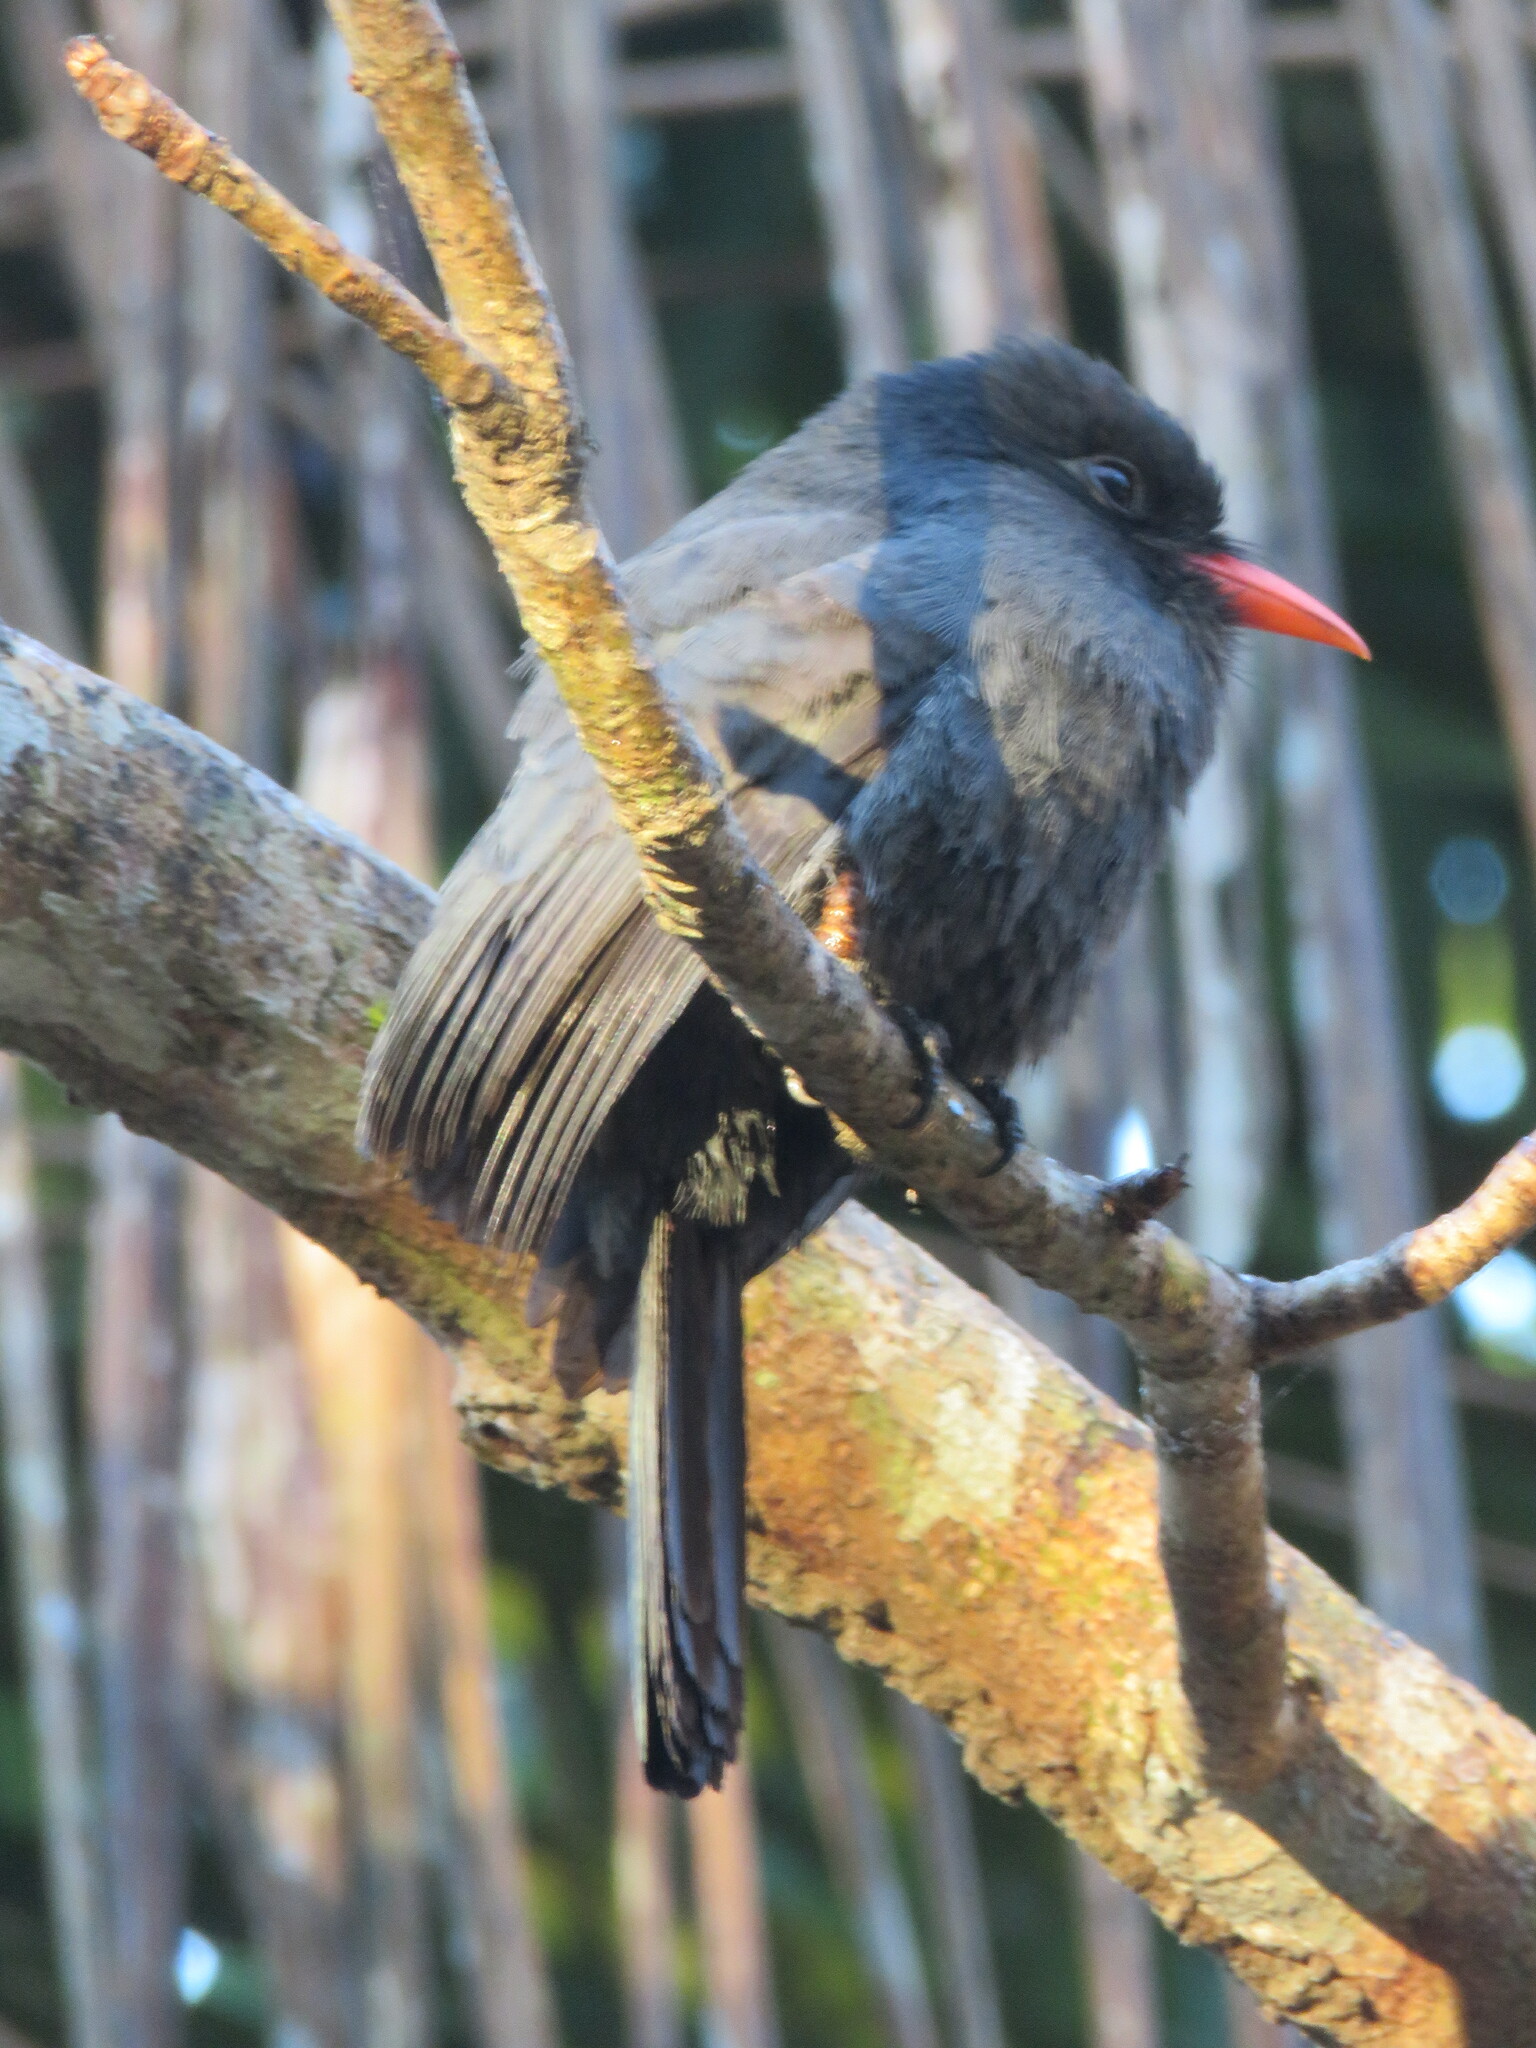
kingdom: Animalia
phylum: Chordata
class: Aves
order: Piciformes
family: Bucconidae
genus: Monasa
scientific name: Monasa nigrifrons
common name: Black-fronted nunbird
